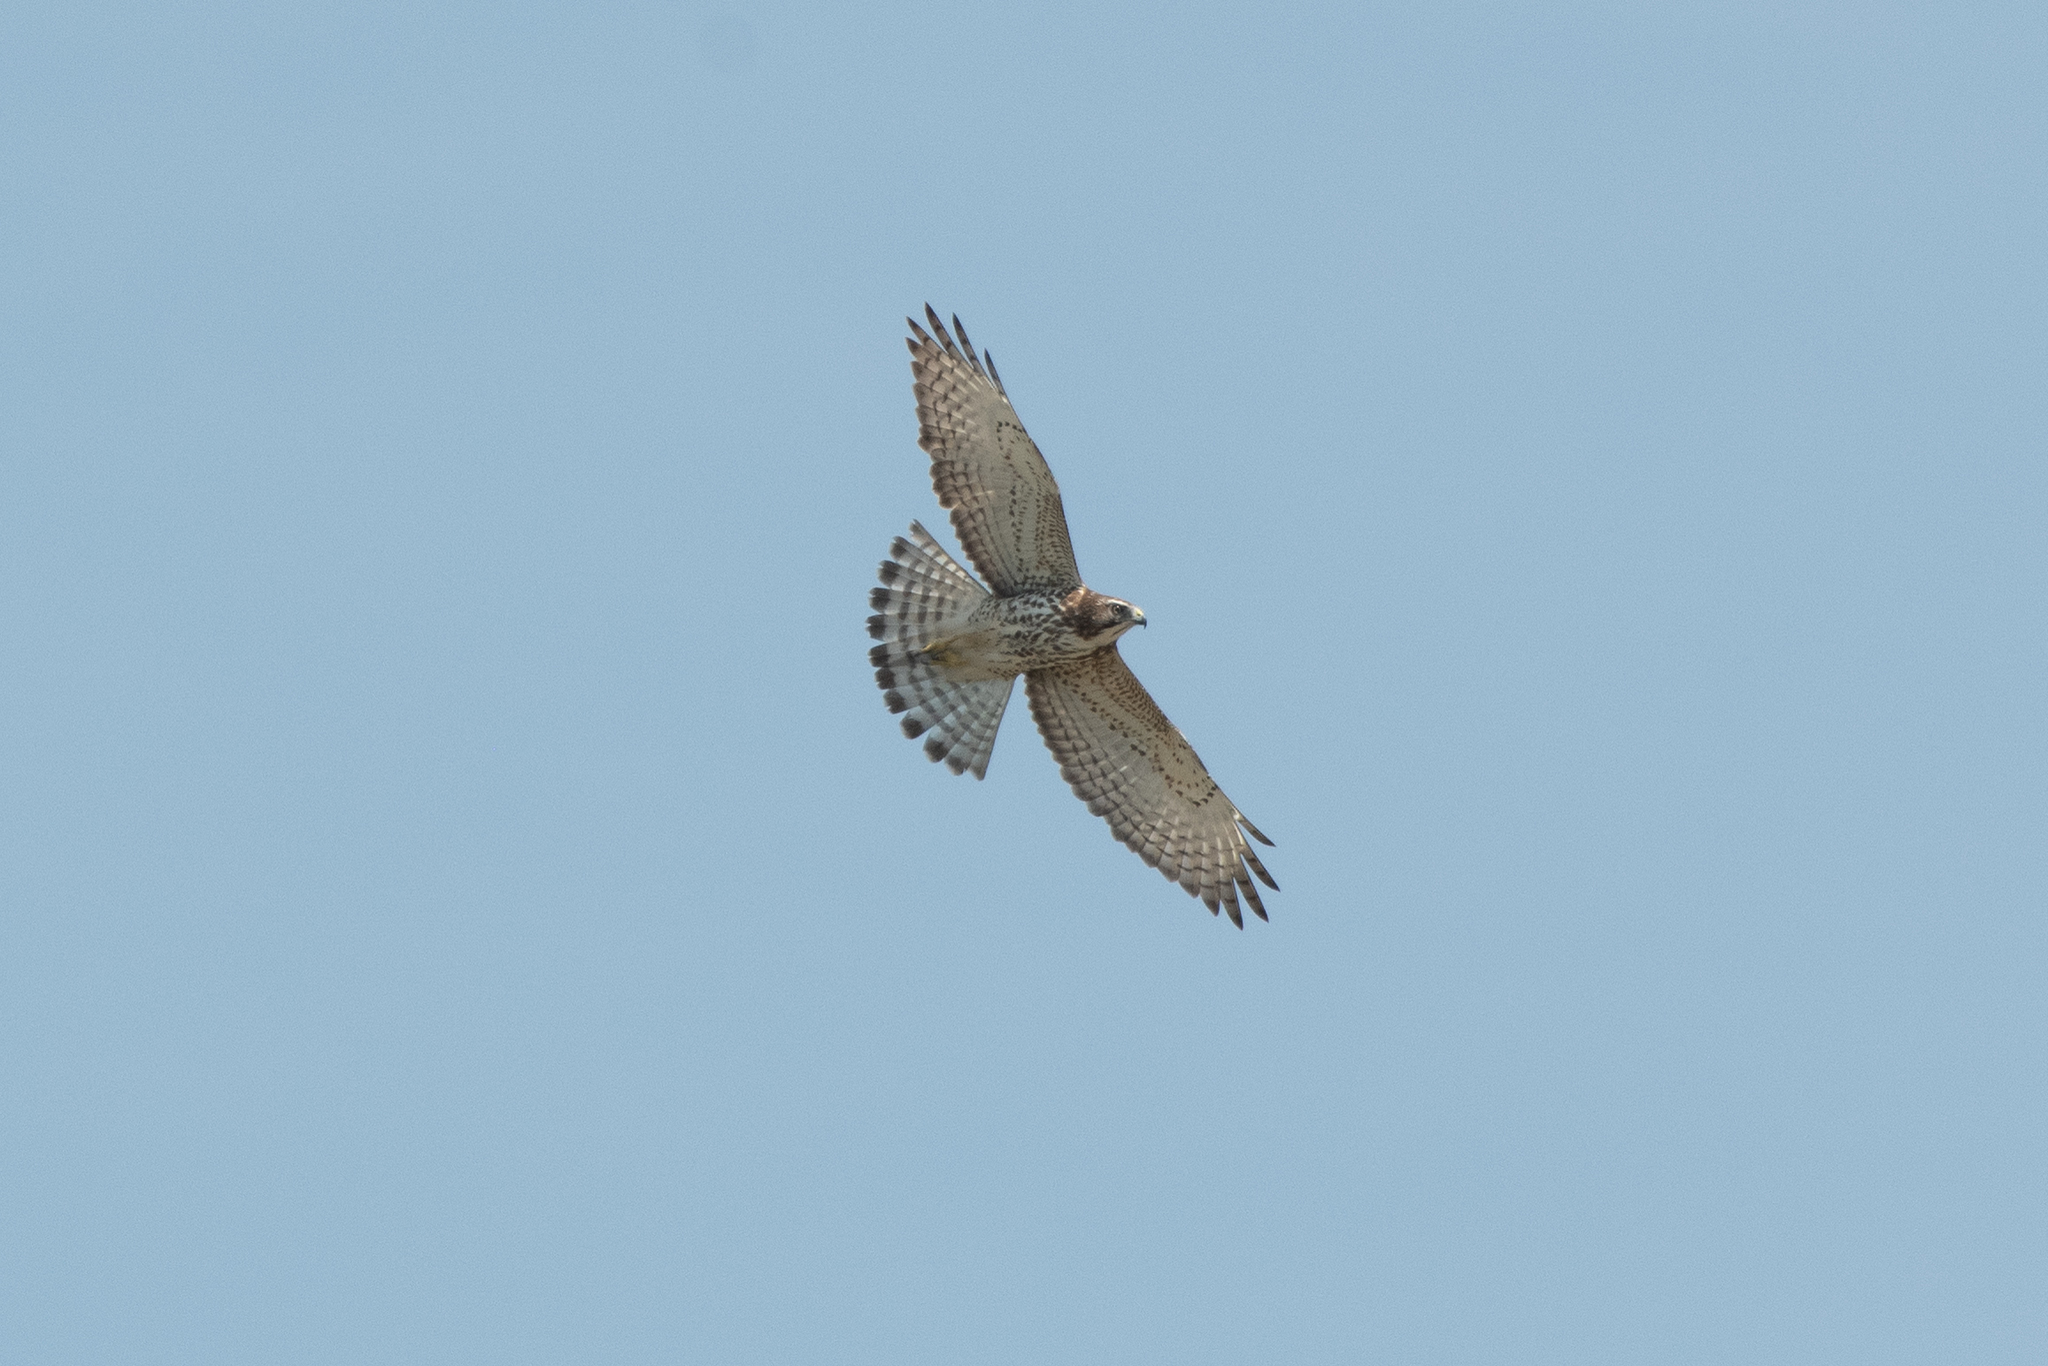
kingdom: Animalia
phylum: Chordata
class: Aves
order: Accipitriformes
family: Accipitridae
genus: Buteo
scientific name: Buteo platypterus
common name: Broad-winged hawk
